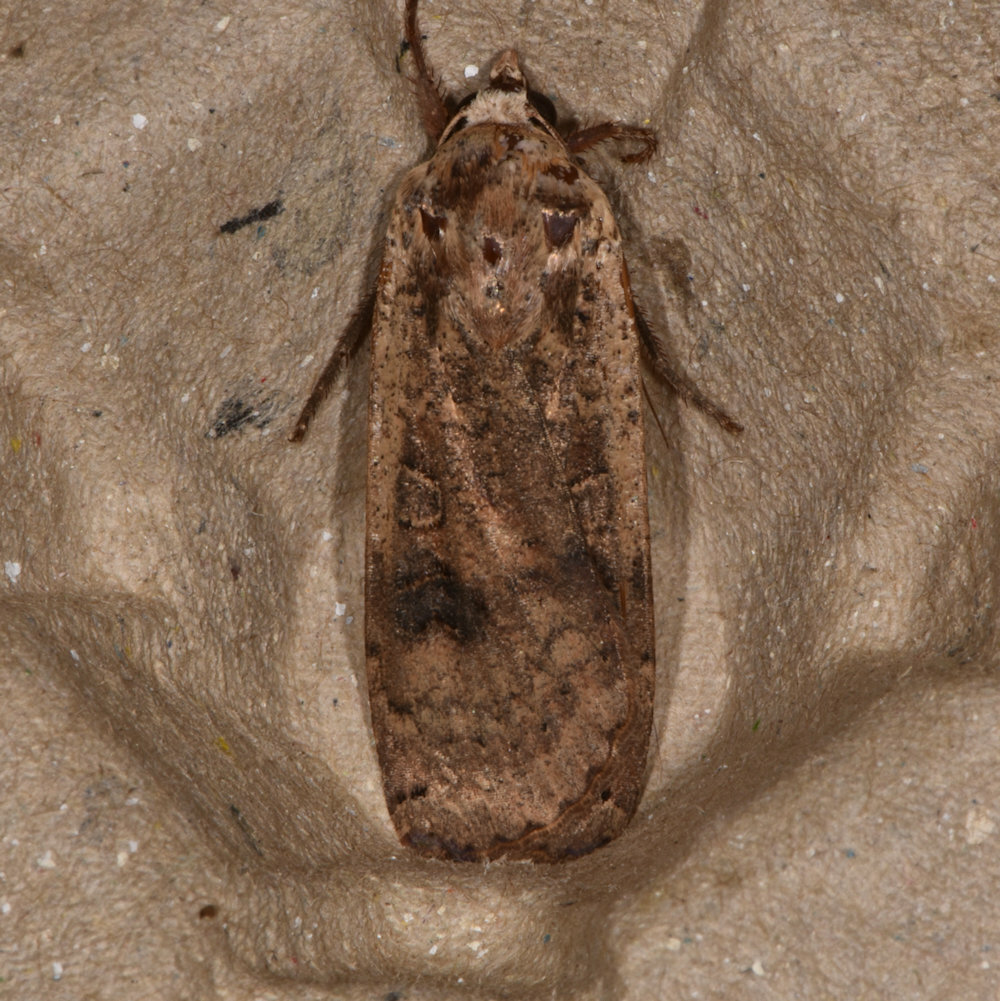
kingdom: Animalia
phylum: Arthropoda
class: Insecta
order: Lepidoptera
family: Noctuidae
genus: Noctua
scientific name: Noctua pronuba
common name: Large yellow underwing
